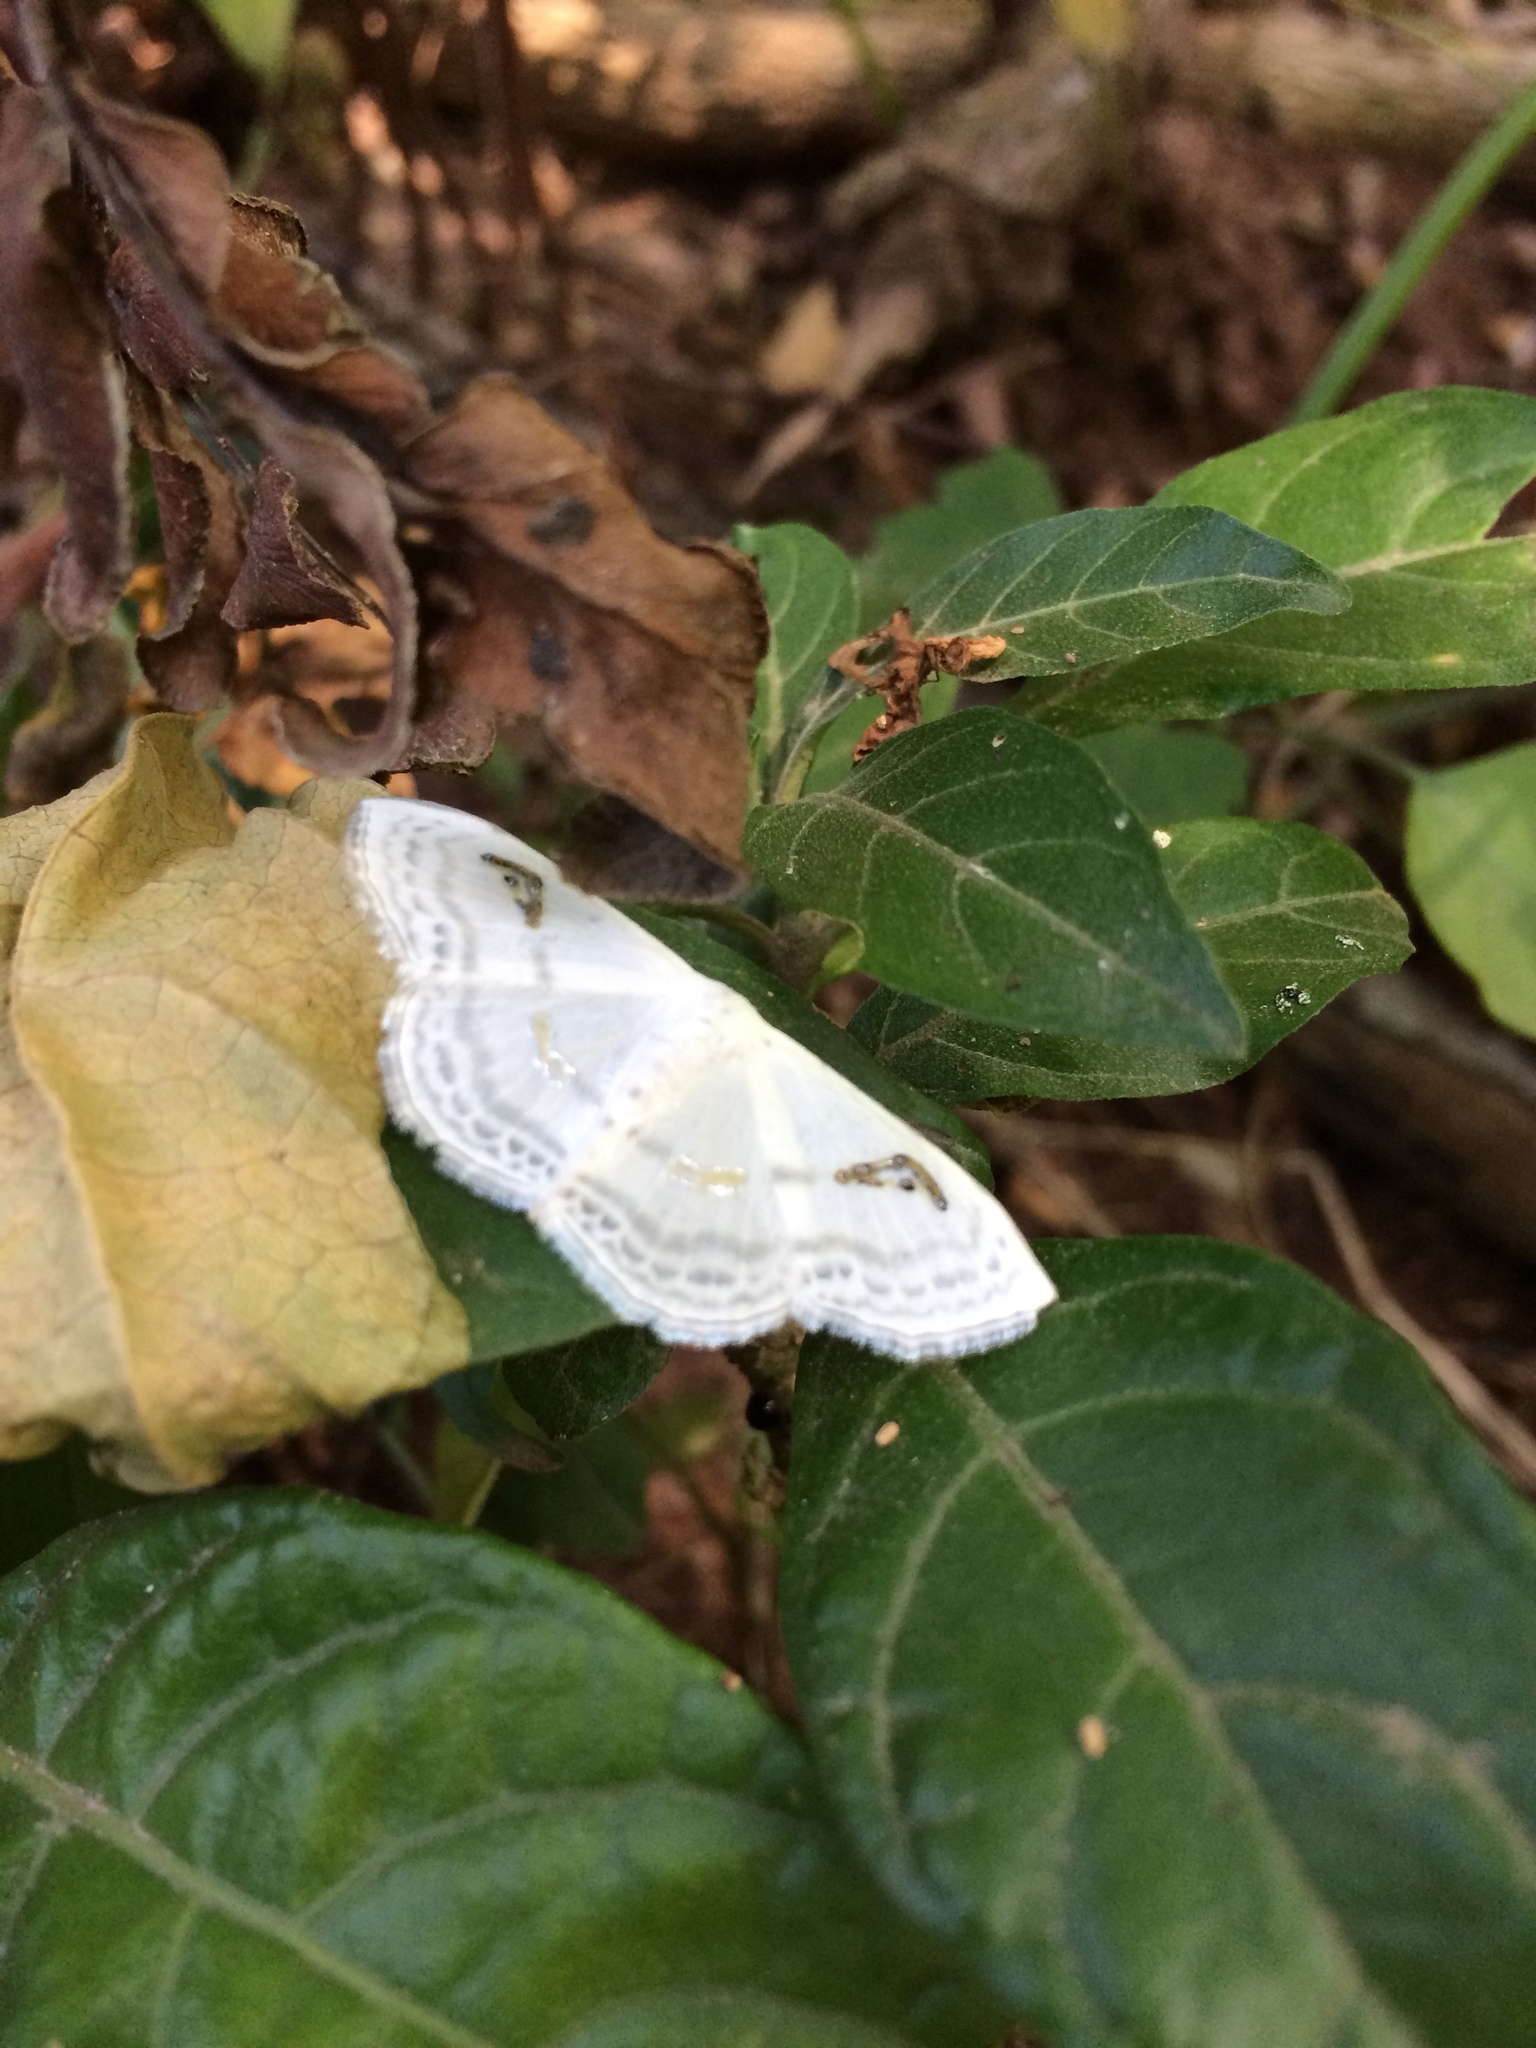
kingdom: Animalia
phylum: Arthropoda
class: Insecta
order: Lepidoptera
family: Geometridae
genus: Problepsis
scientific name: Problepsis digammata
